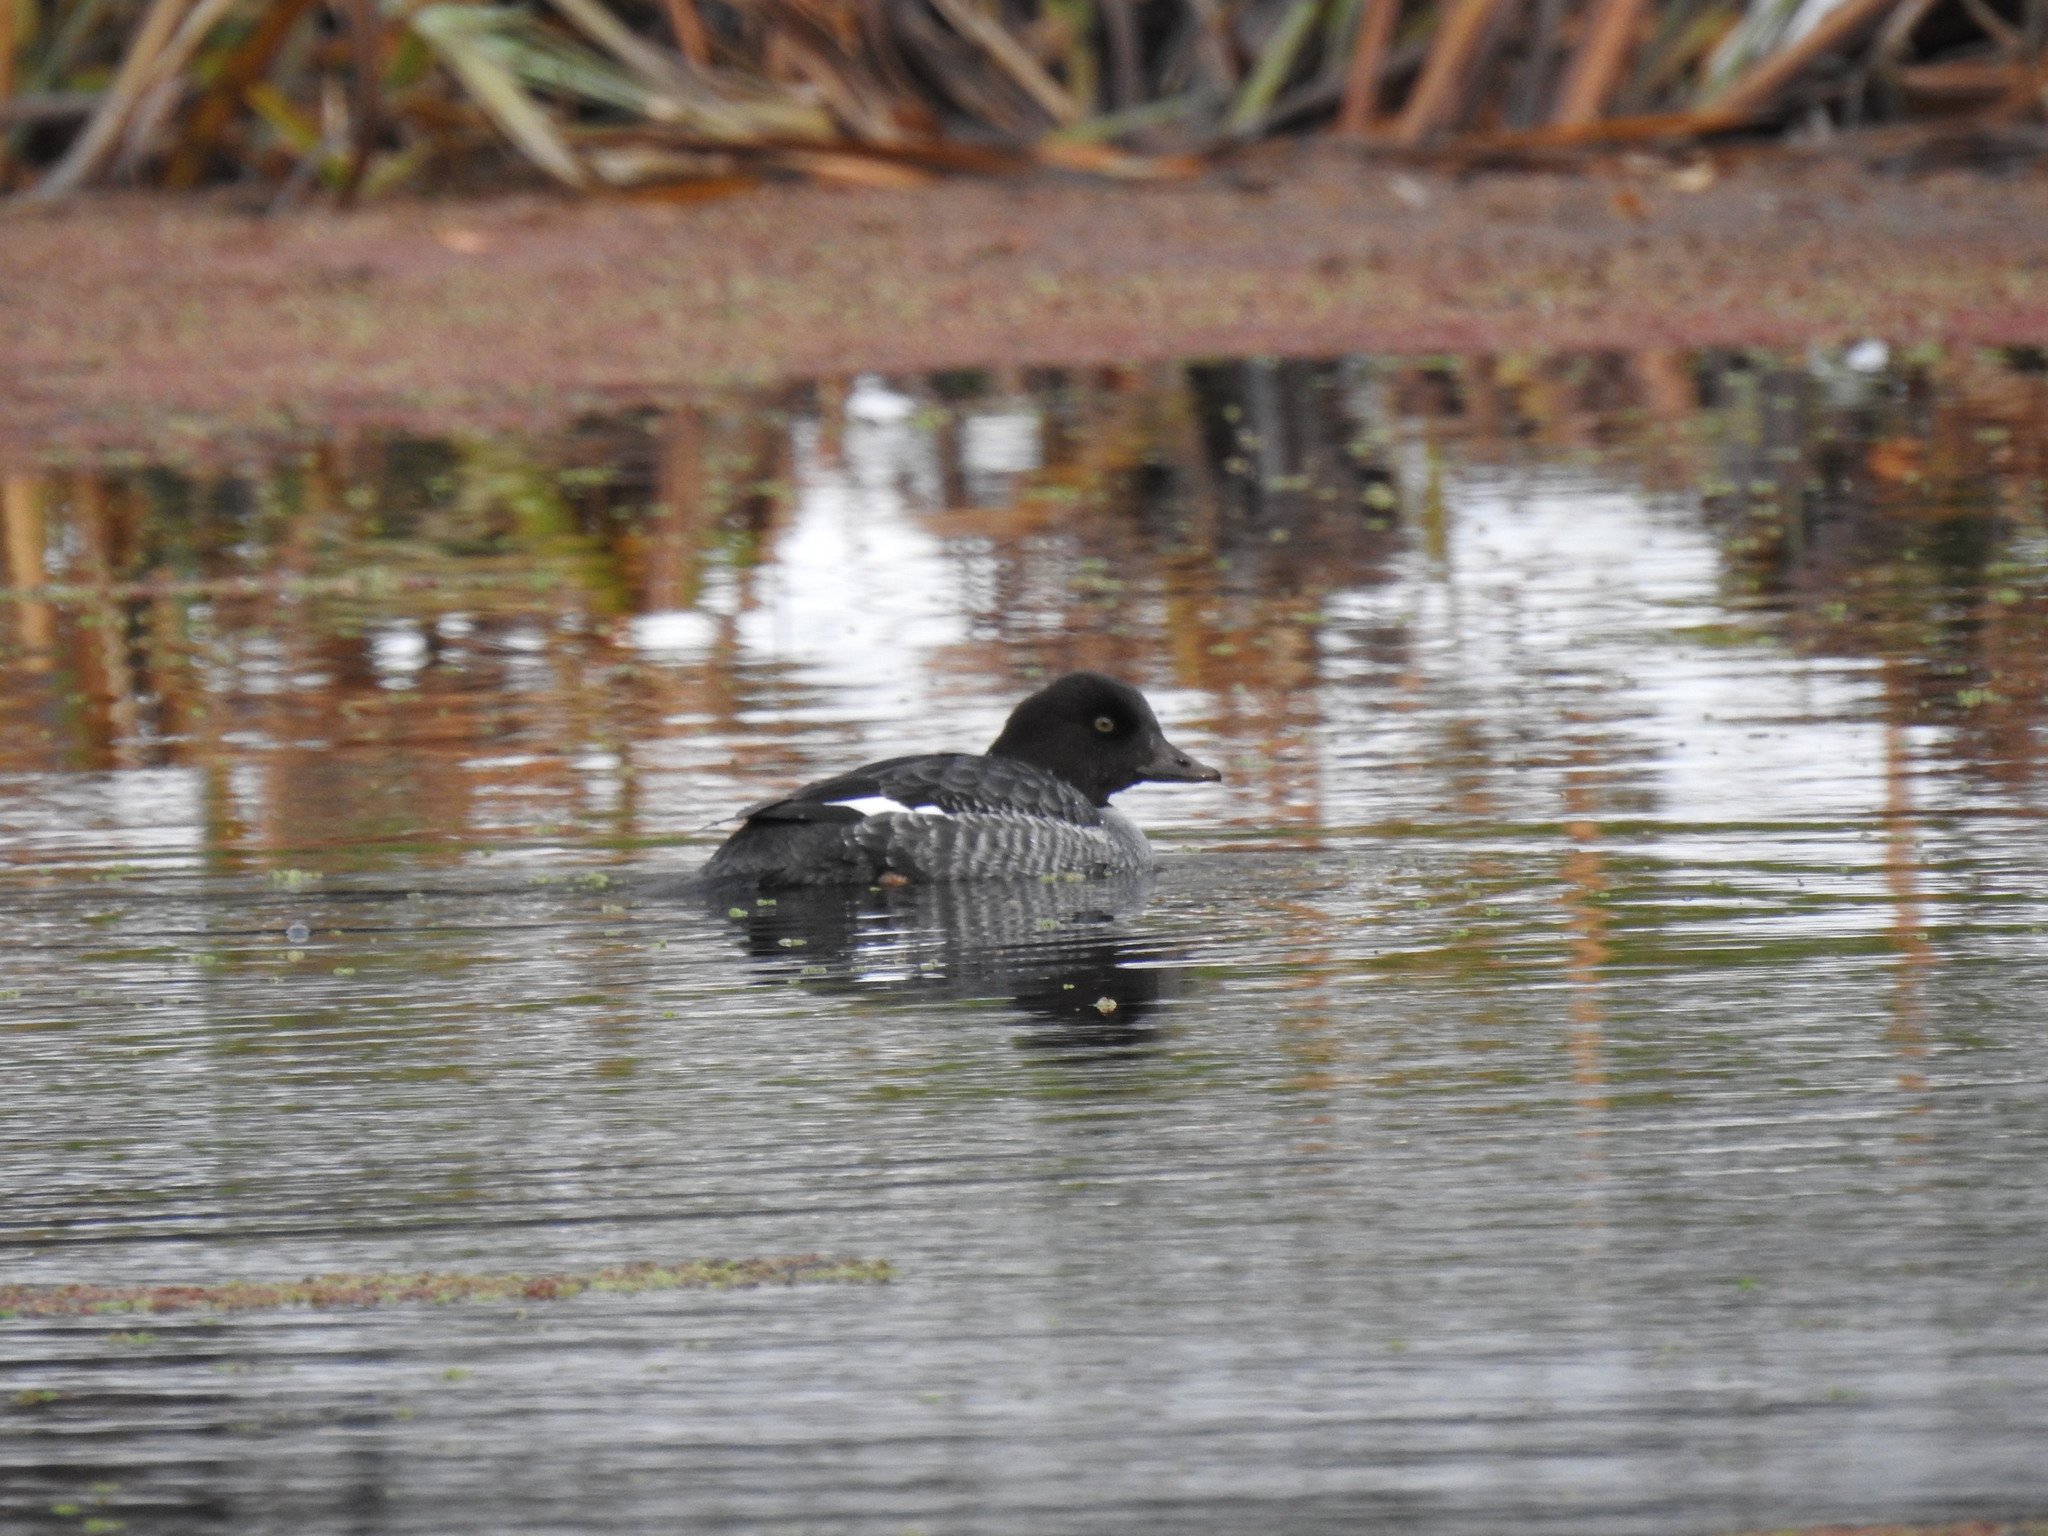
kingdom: Animalia
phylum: Chordata
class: Aves
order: Anseriformes
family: Anatidae
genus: Bucephala
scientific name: Bucephala clangula
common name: Common goldeneye
